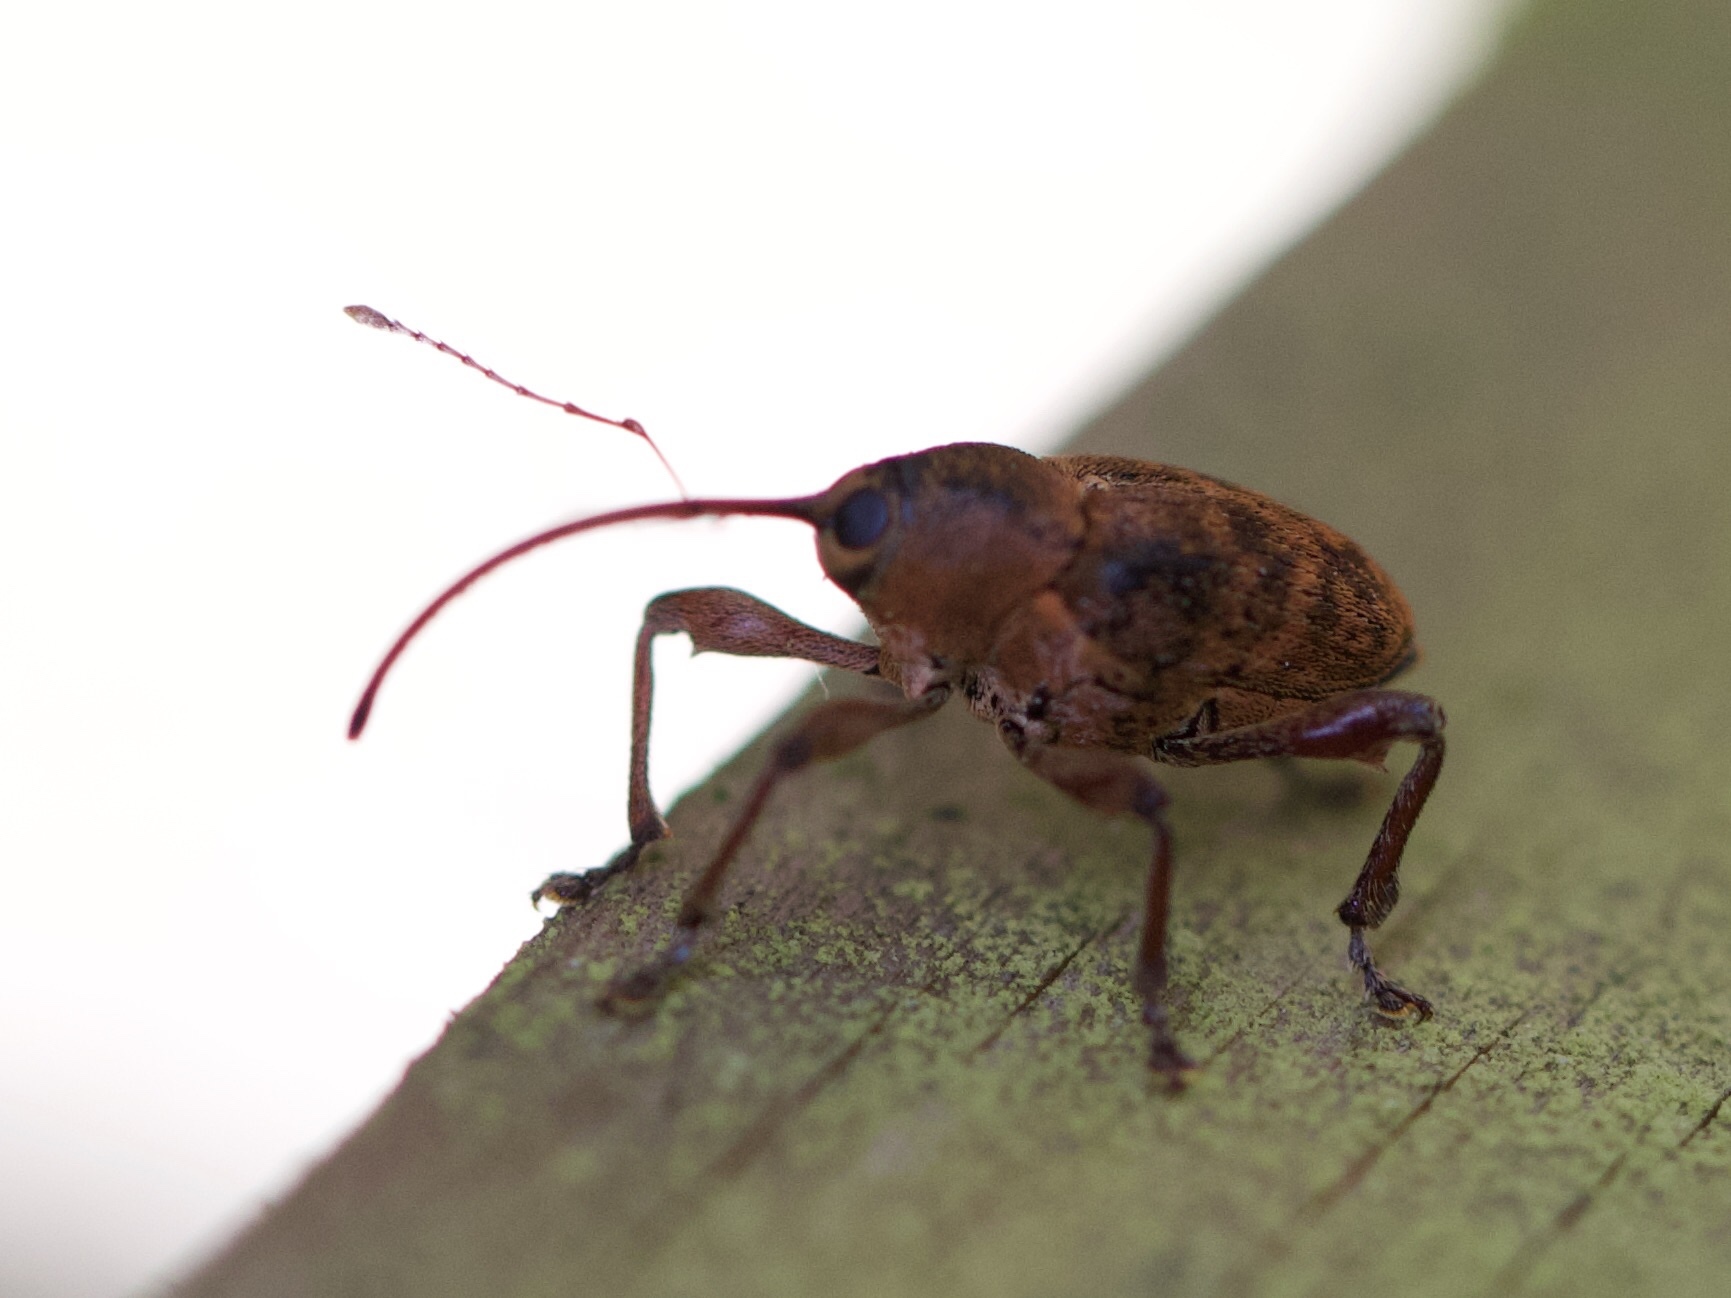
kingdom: Animalia
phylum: Arthropoda
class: Insecta
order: Coleoptera
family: Curculionidae
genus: Curculio
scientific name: Curculio glandium
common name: Acorn weevil
